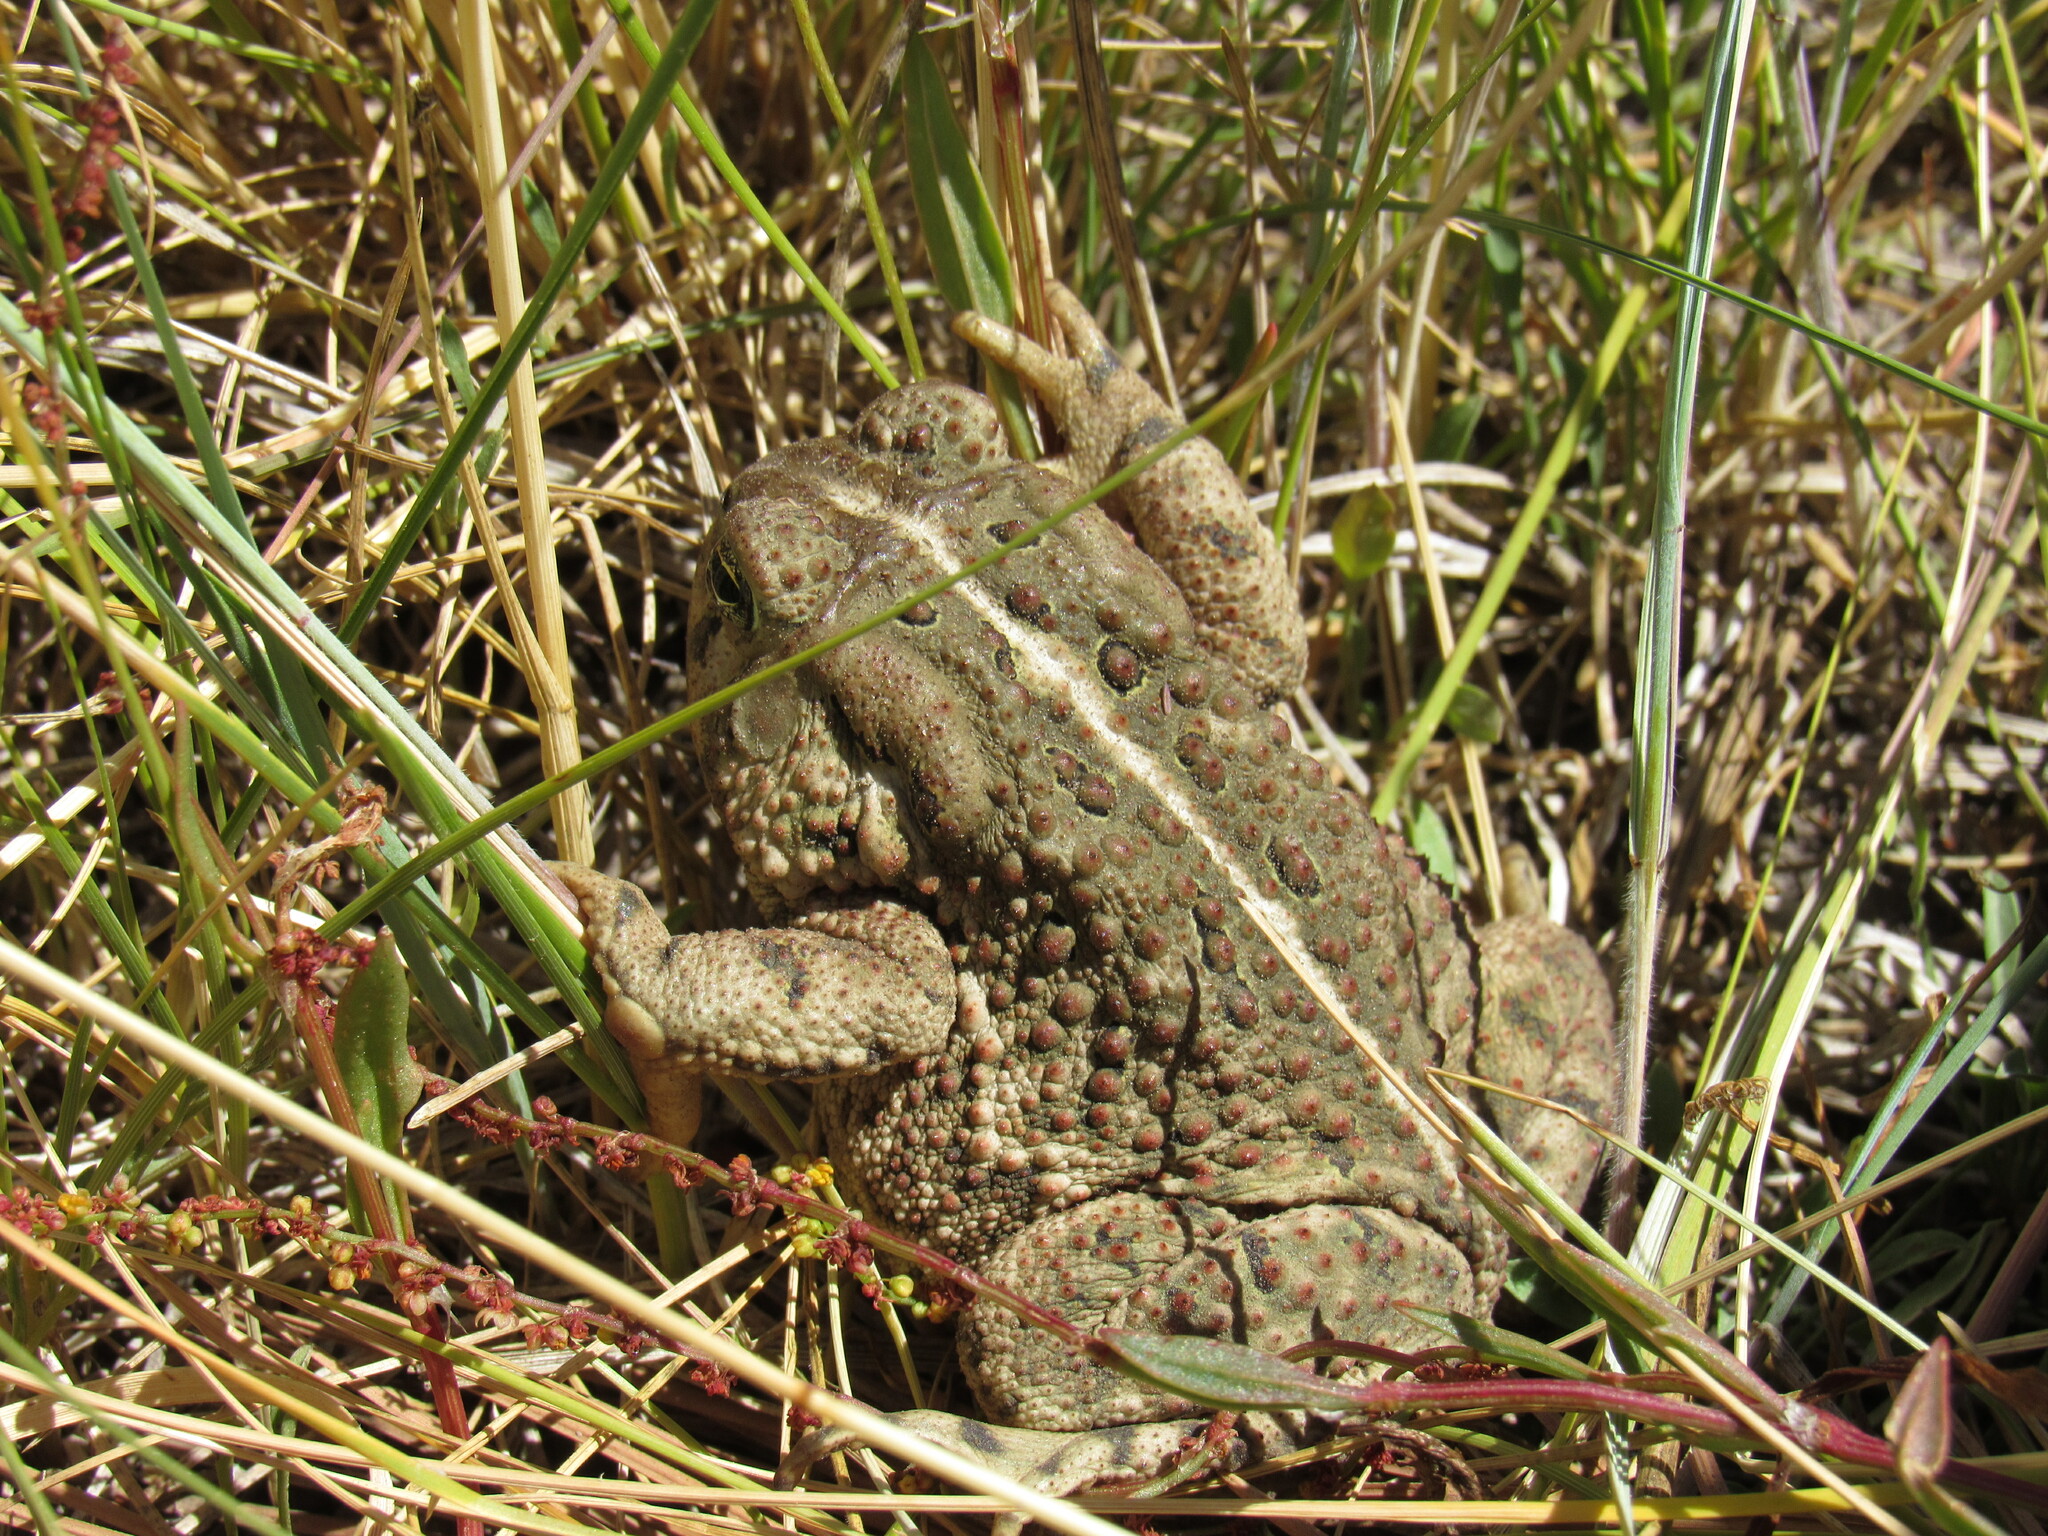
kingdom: Animalia
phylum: Chordata
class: Amphibia
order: Anura
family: Bufonidae
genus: Anaxyrus
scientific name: Anaxyrus woodhousii
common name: Woodhouse's toad
